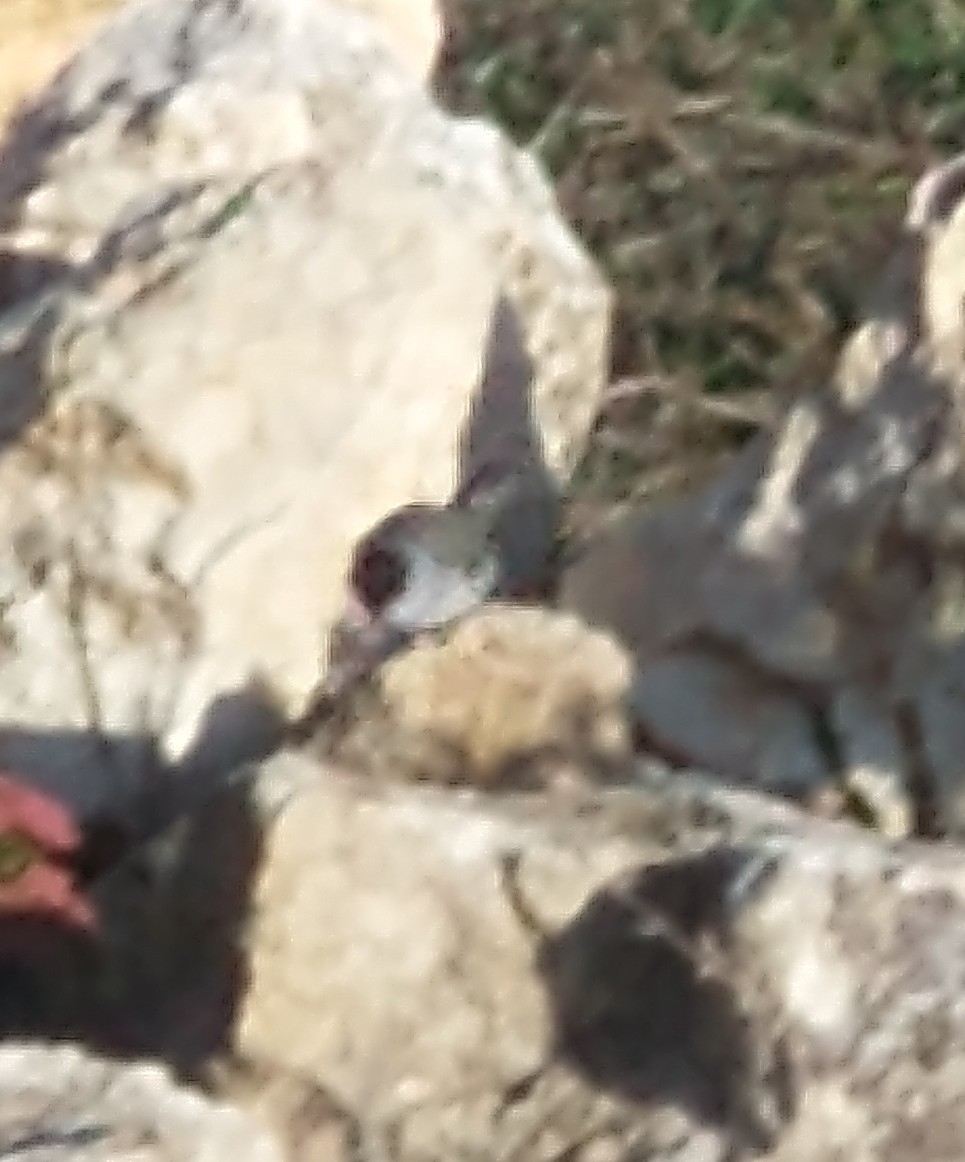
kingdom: Animalia
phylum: Chordata
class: Aves
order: Passeriformes
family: Sylviidae
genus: Sylvia
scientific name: Sylvia atricapilla
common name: Eurasian blackcap
